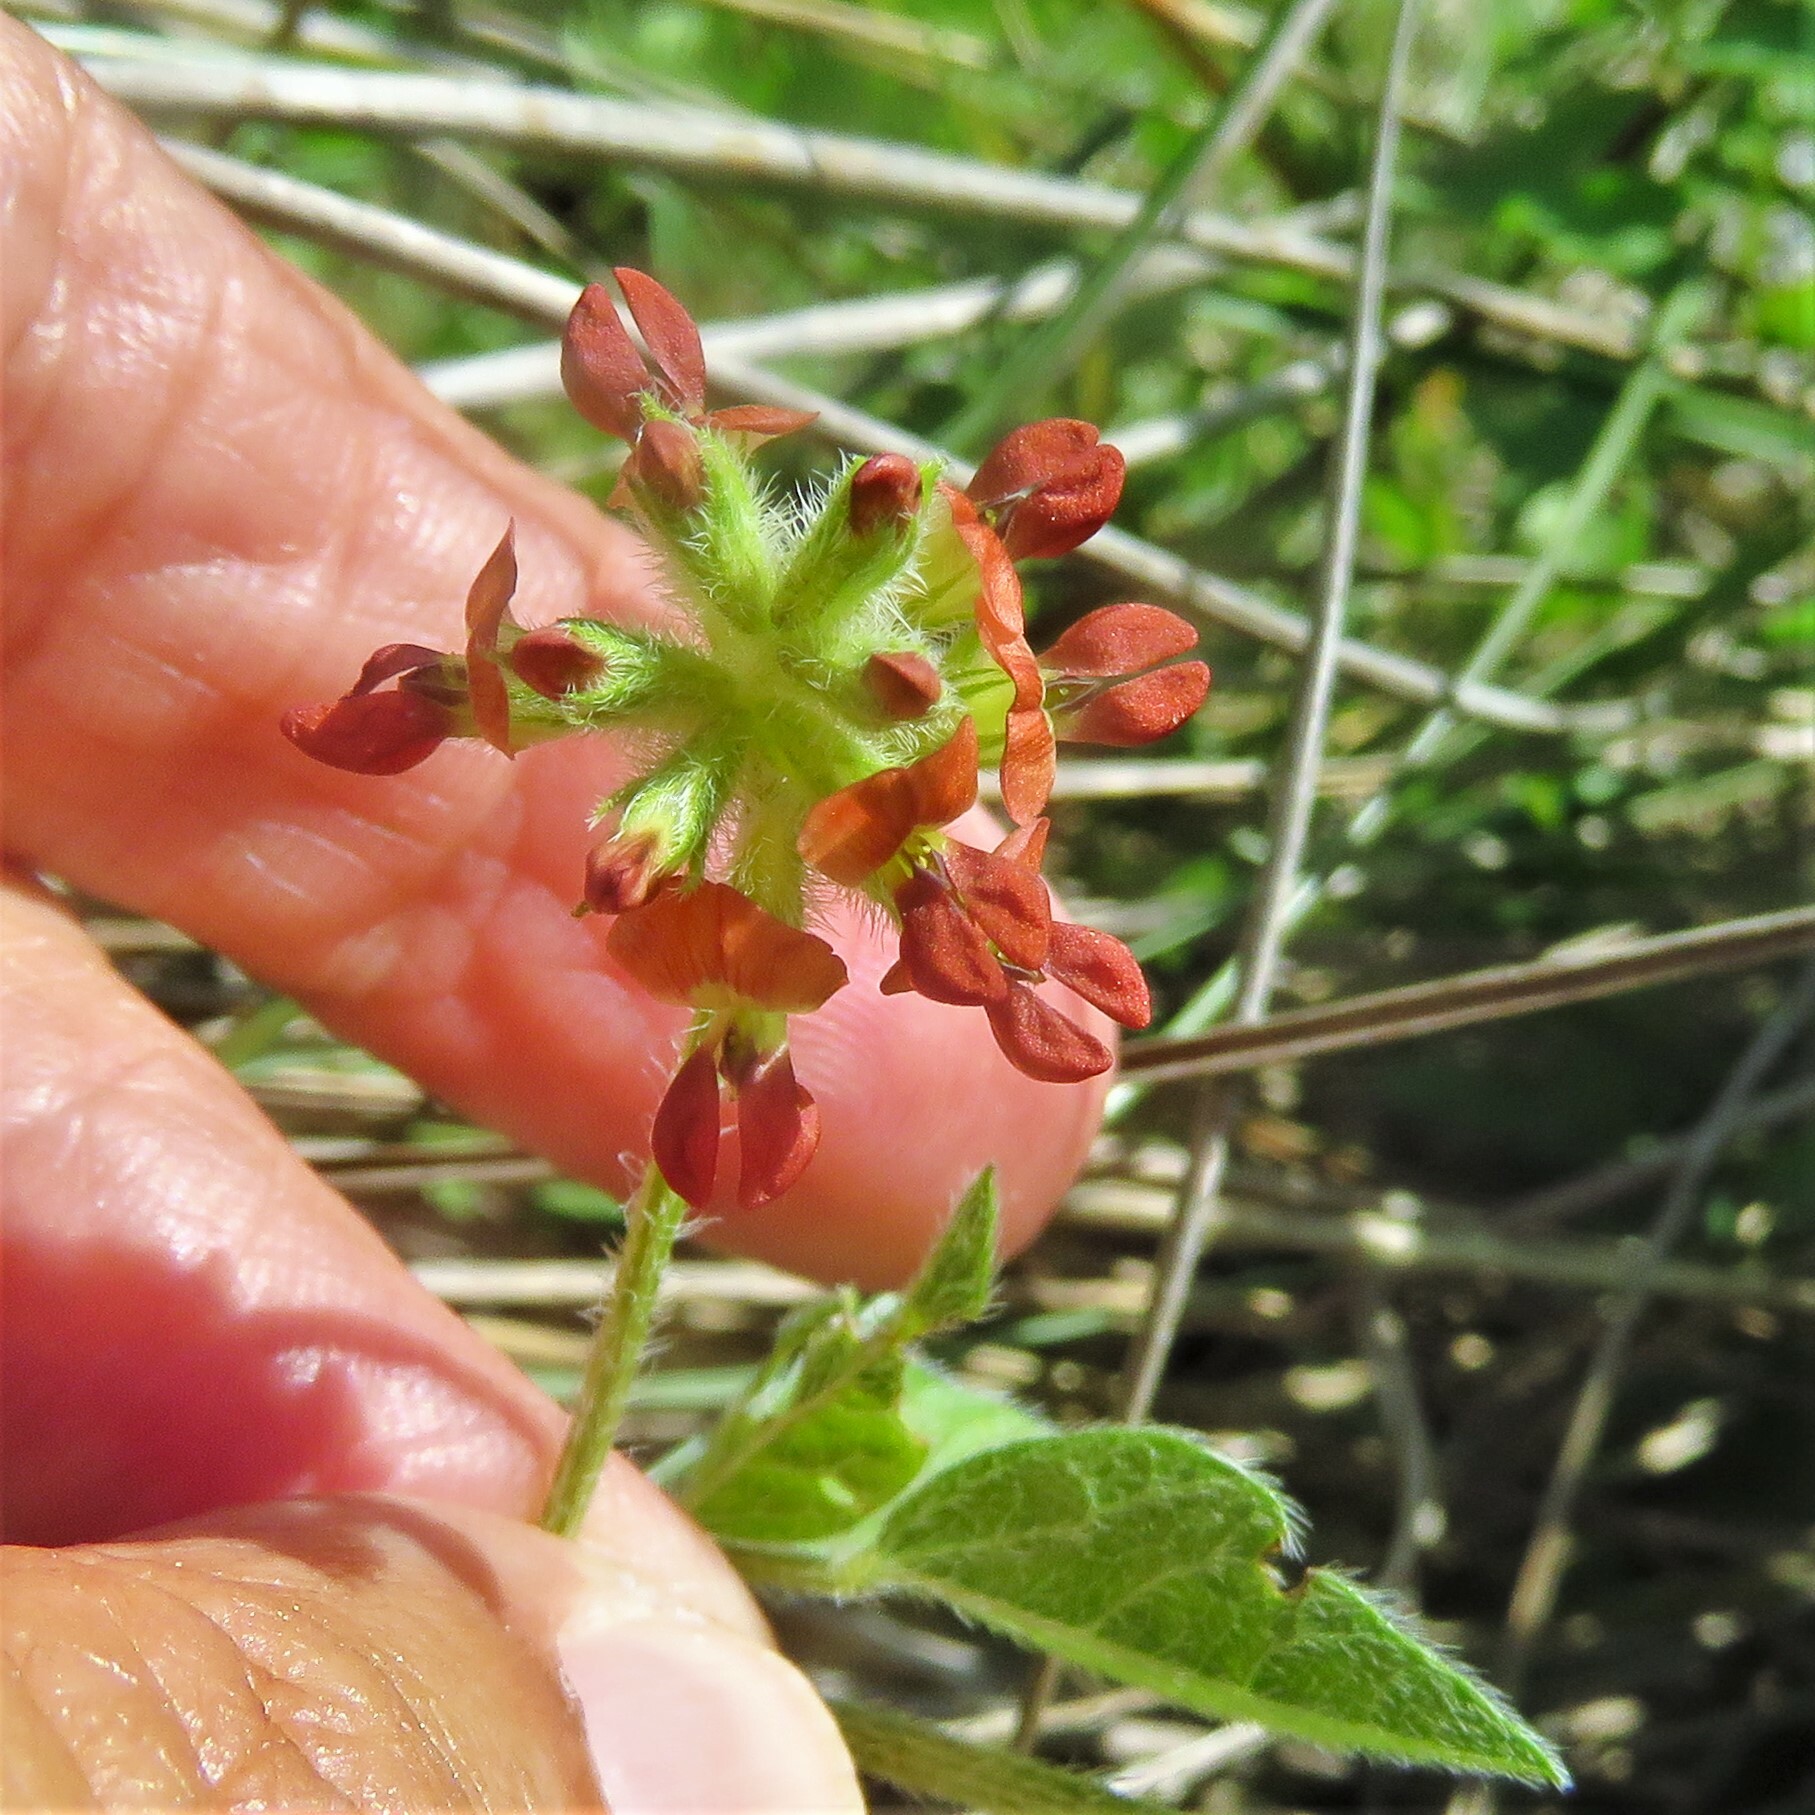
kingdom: Plantae
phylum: Tracheophyta
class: Magnoliopsida
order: Fabales
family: Fabaceae
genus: Pediomelum
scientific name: Pediomelum rhombifolium
